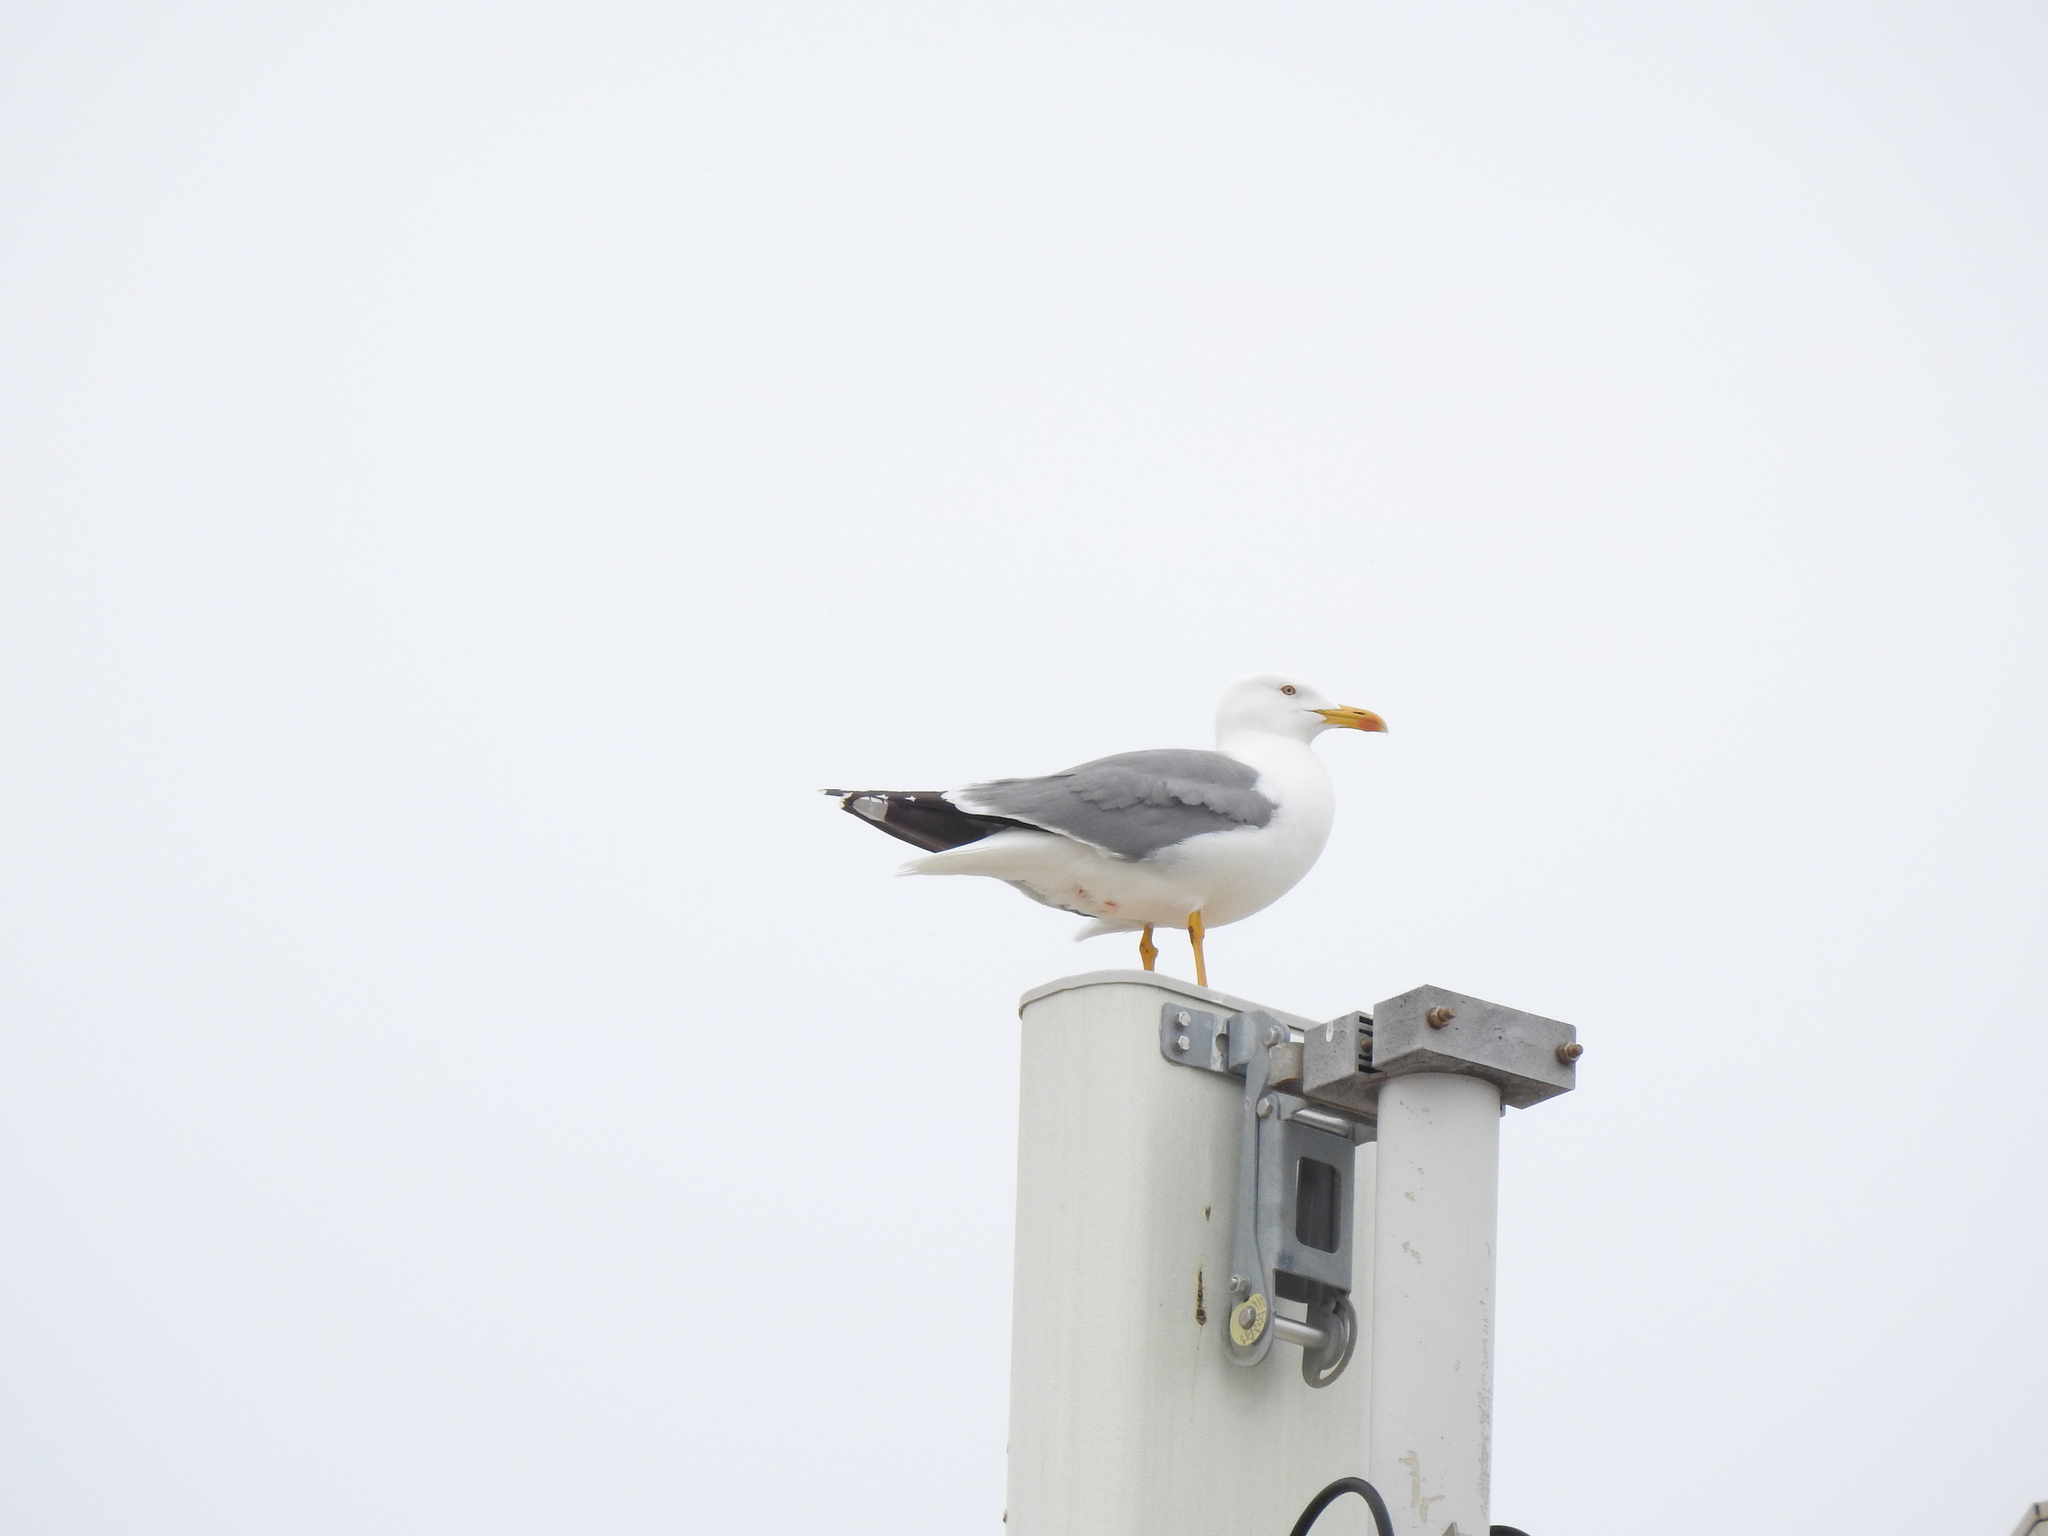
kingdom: Animalia
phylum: Chordata
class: Aves
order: Charadriiformes
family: Laridae
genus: Larus
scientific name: Larus michahellis
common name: Yellow-legged gull
